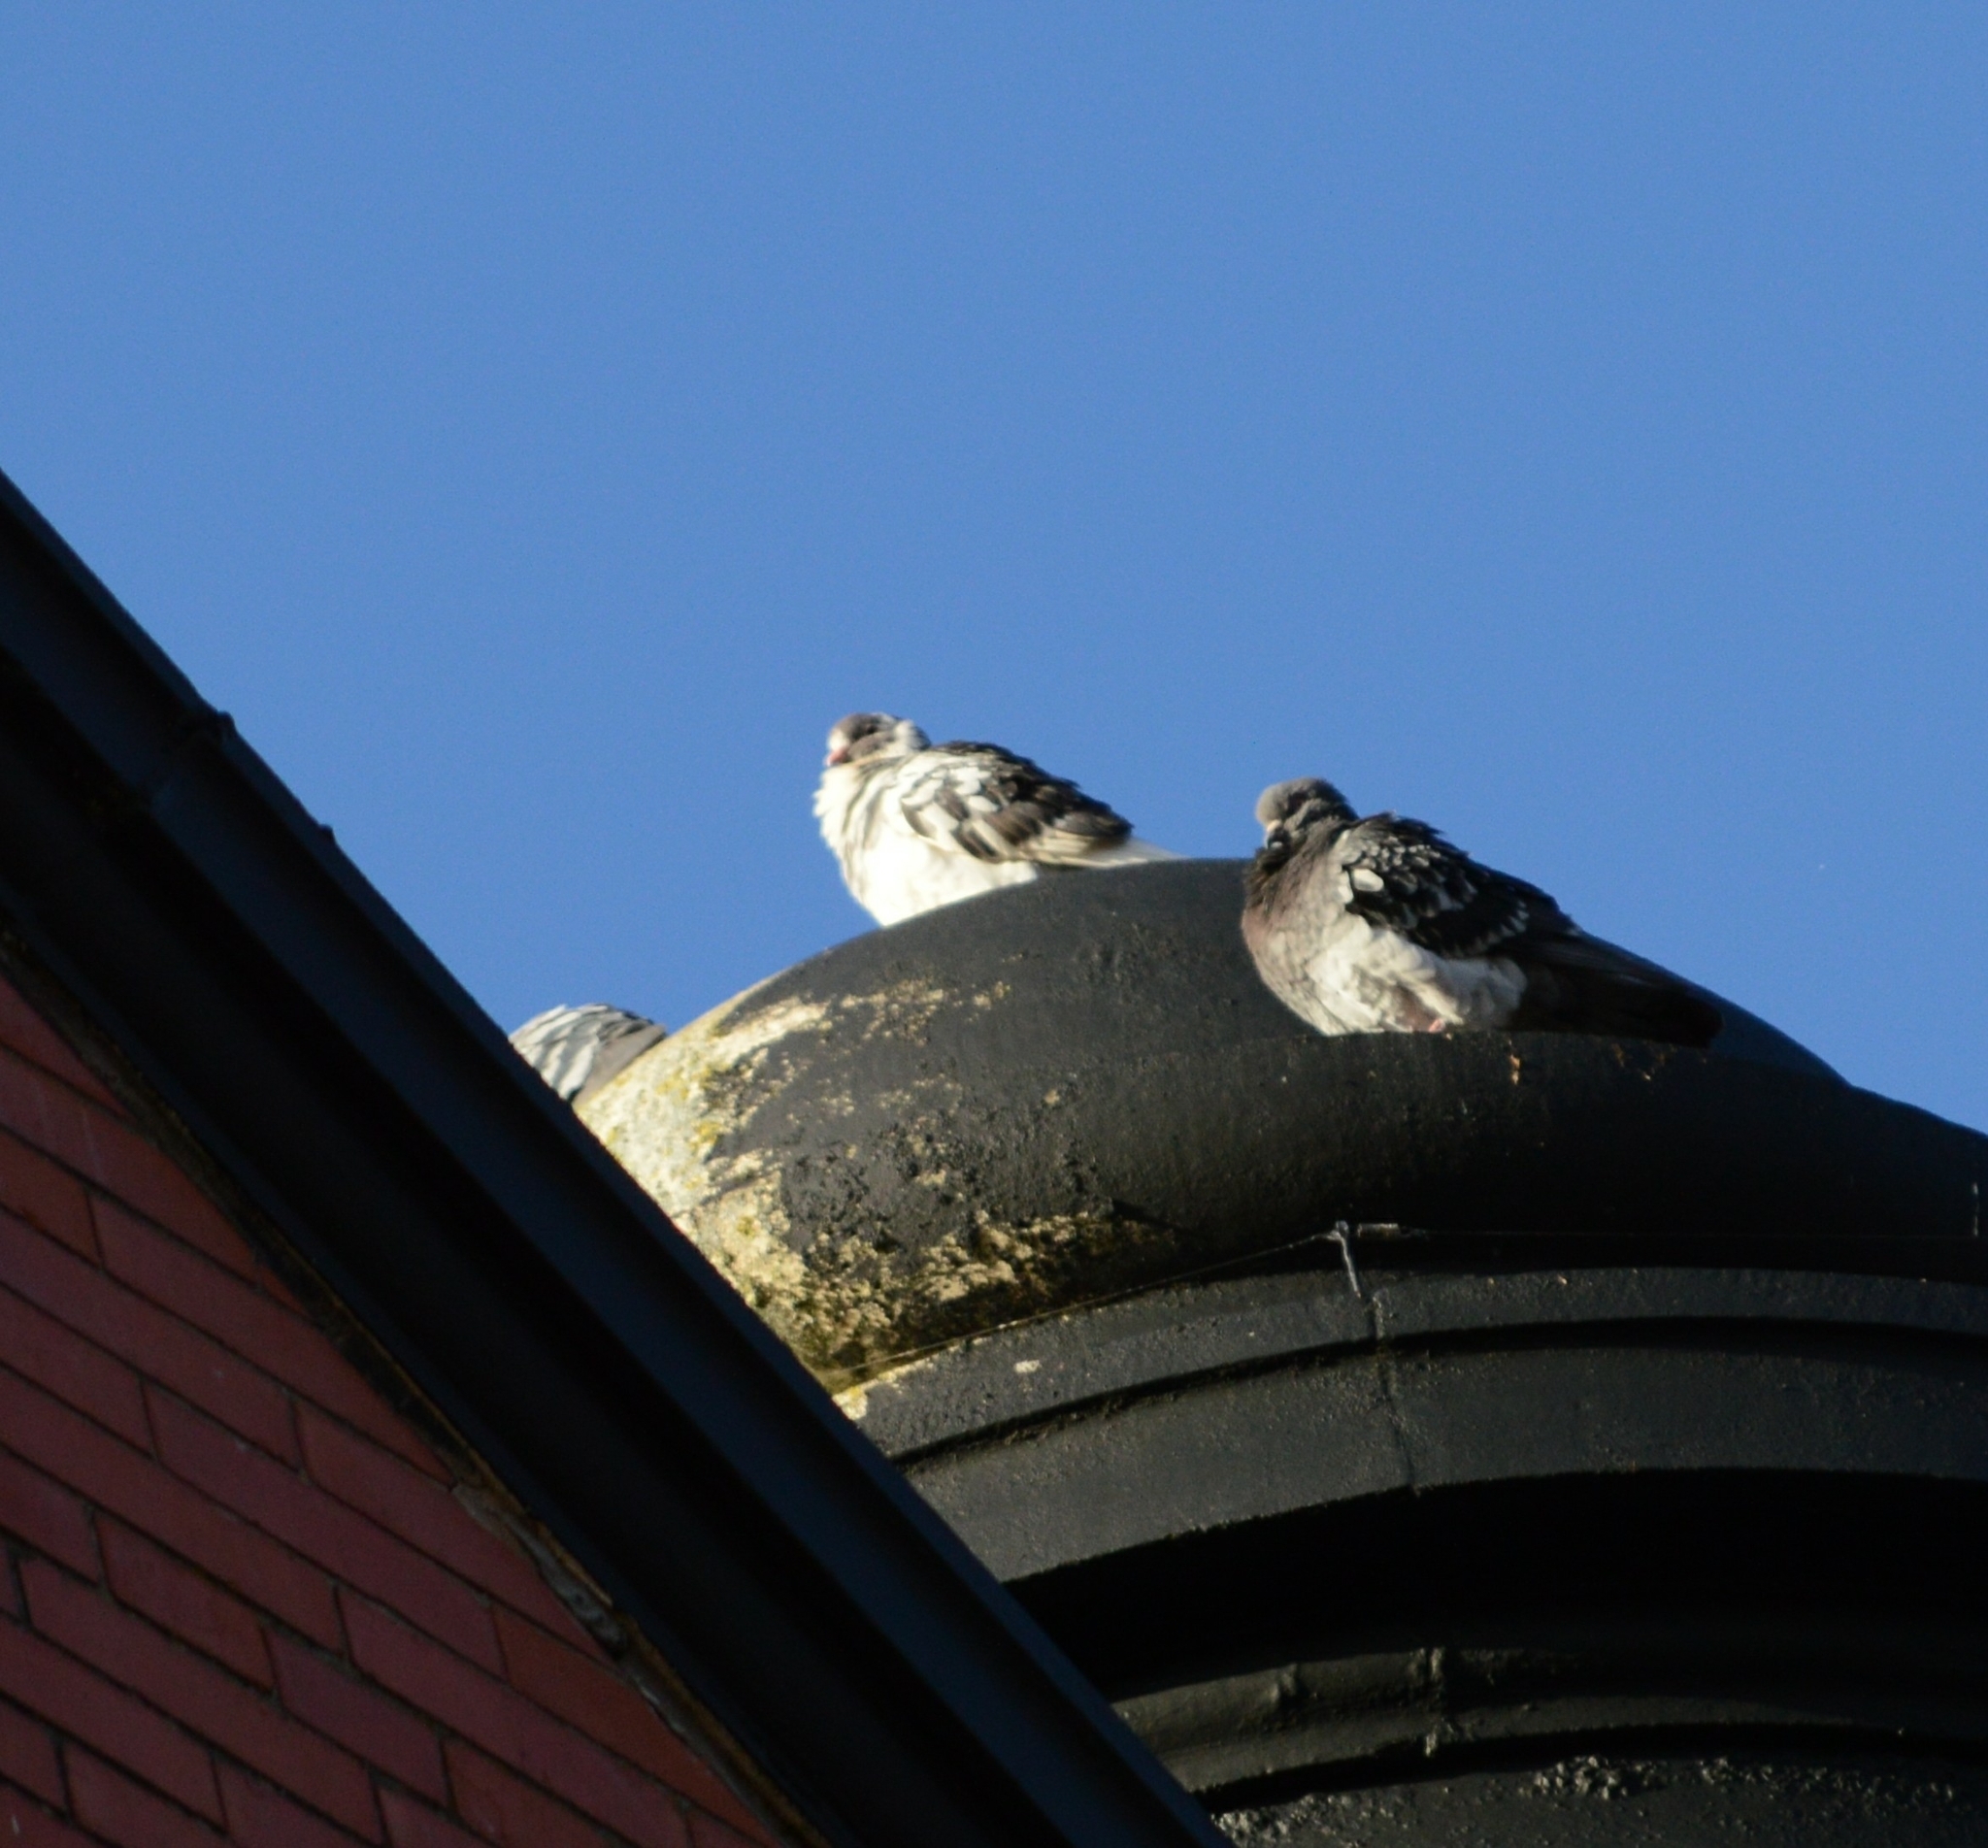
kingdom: Animalia
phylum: Chordata
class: Aves
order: Columbiformes
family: Columbidae
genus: Columba
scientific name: Columba livia
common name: Rock pigeon
